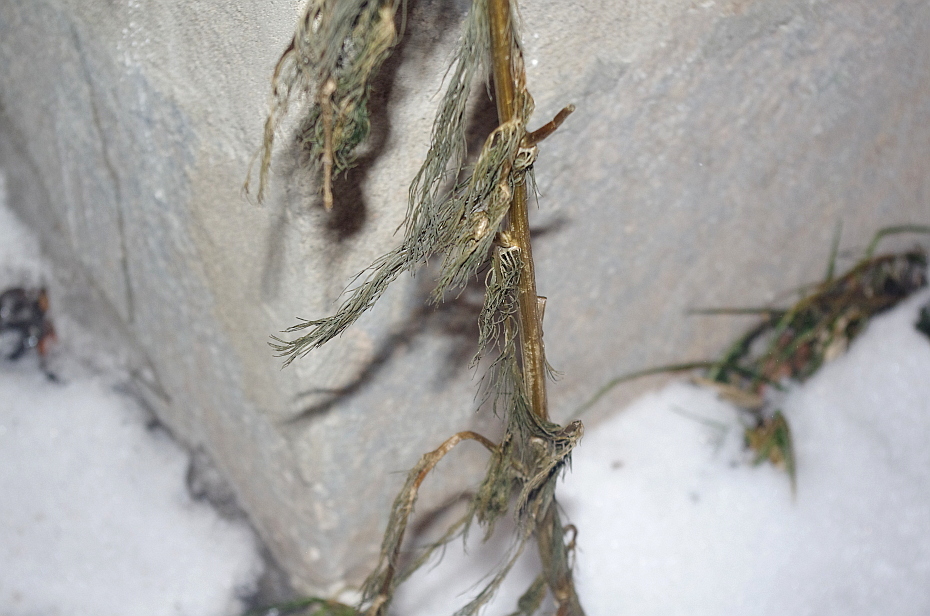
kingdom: Plantae
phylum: Tracheophyta
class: Magnoliopsida
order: Asterales
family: Asteraceae
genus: Tripleurospermum
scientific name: Tripleurospermum inodorum
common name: Scentless mayweed
